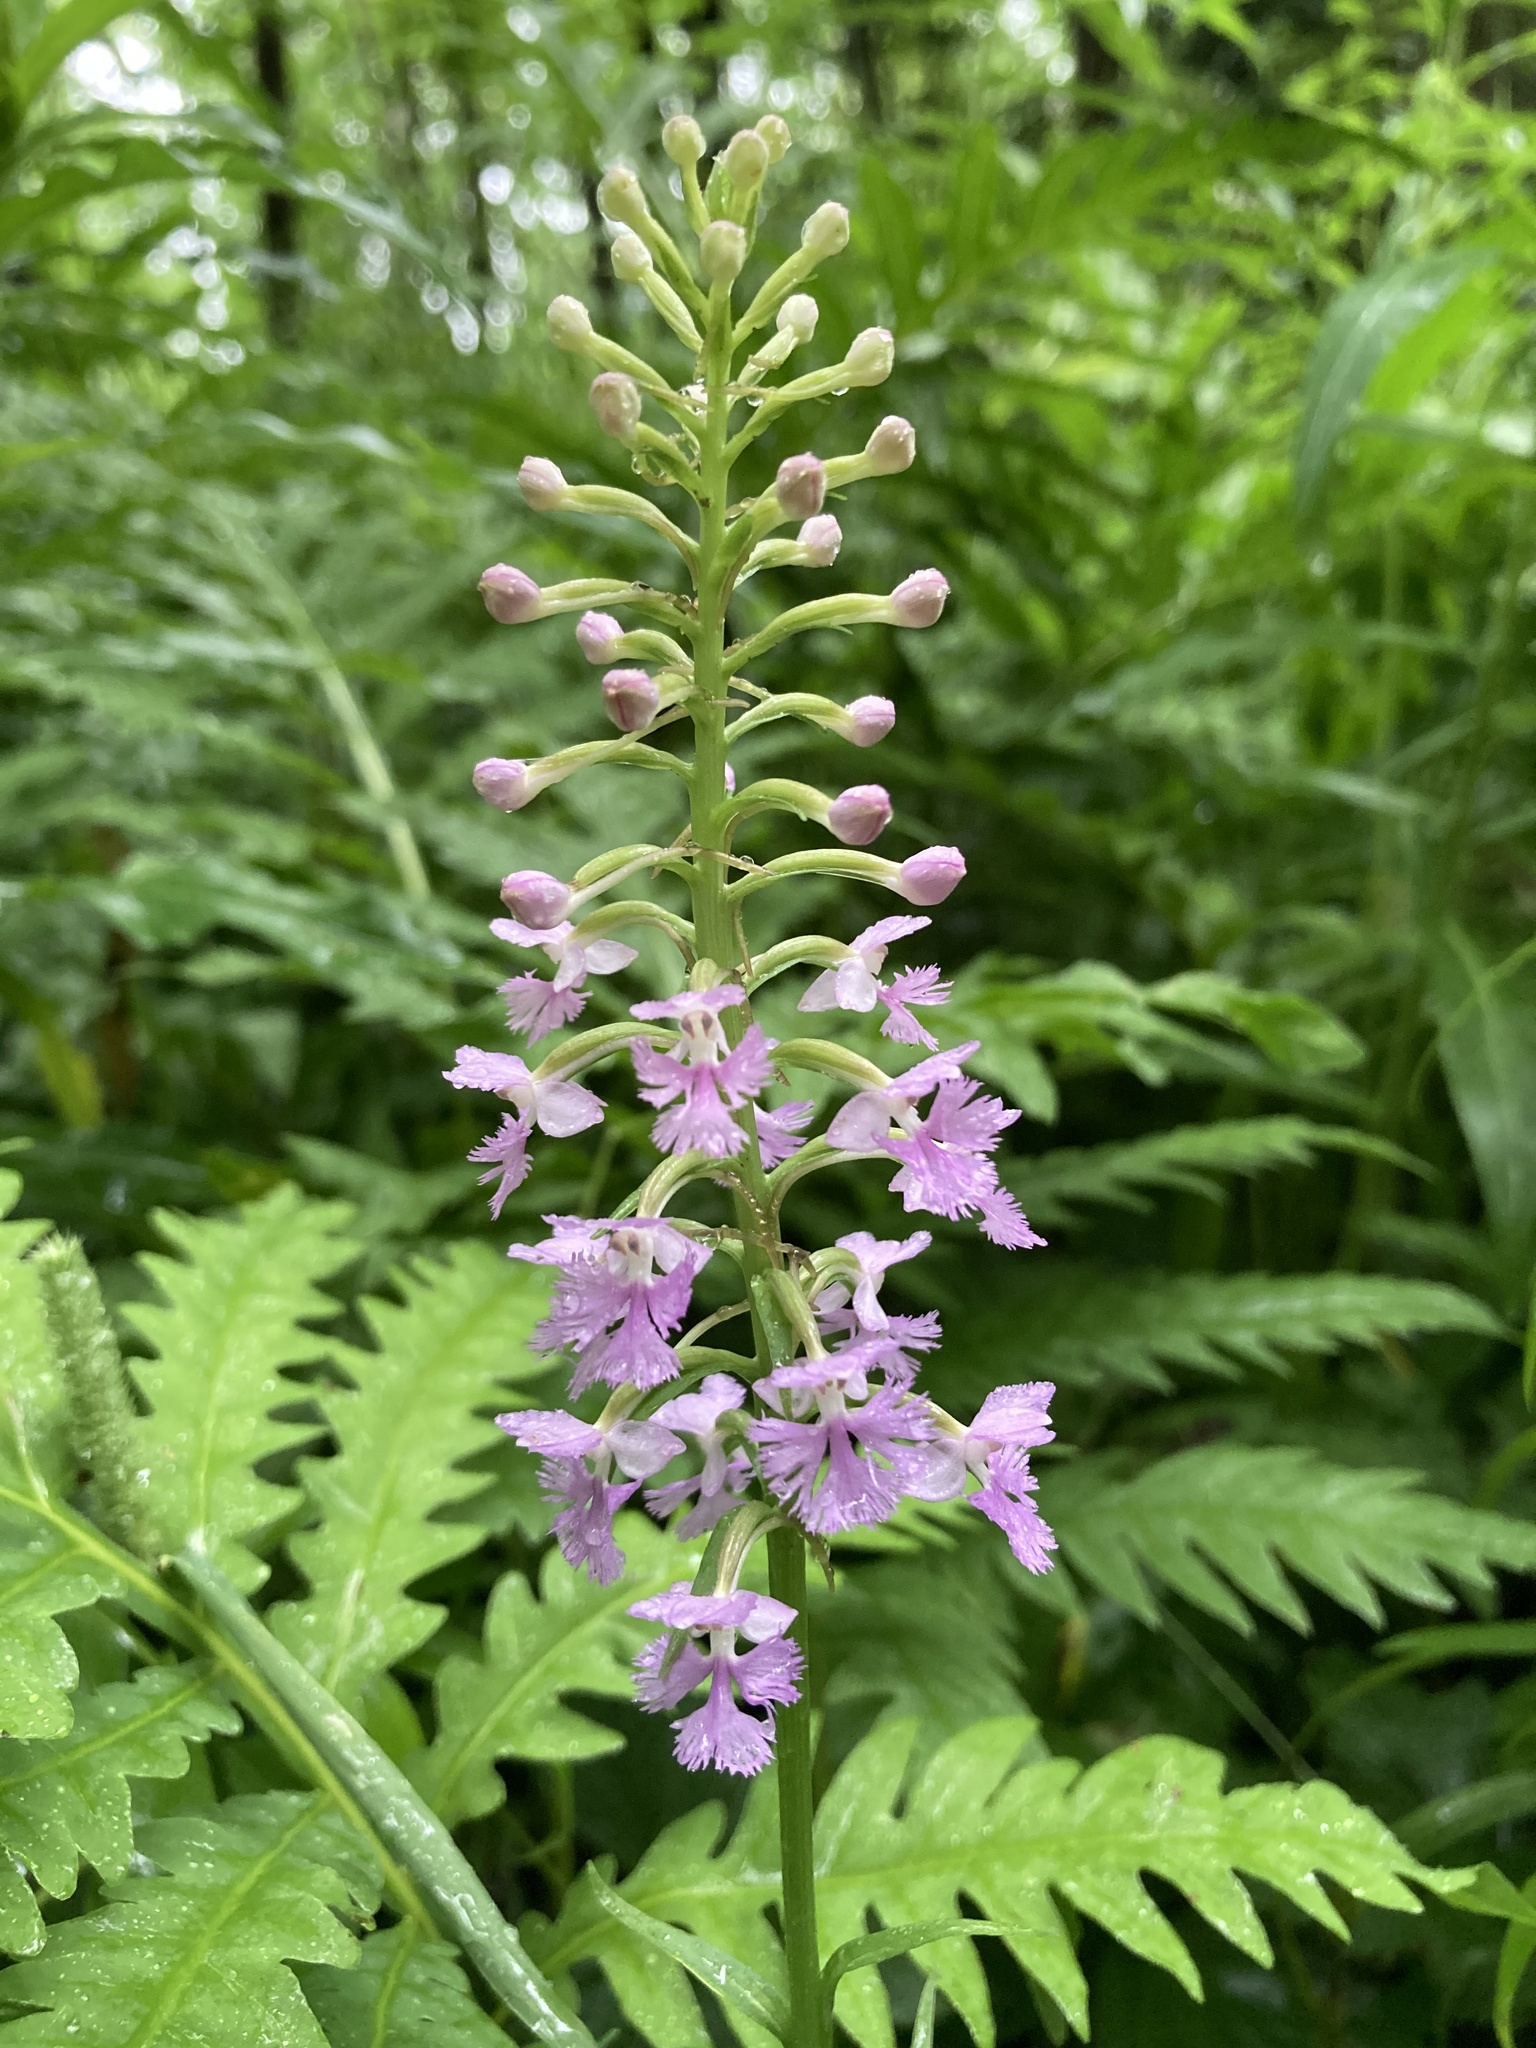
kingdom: Plantae
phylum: Tracheophyta
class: Liliopsida
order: Asparagales
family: Orchidaceae
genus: Platanthera
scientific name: Platanthera psycodes
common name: Lesser purple fringed orchid
